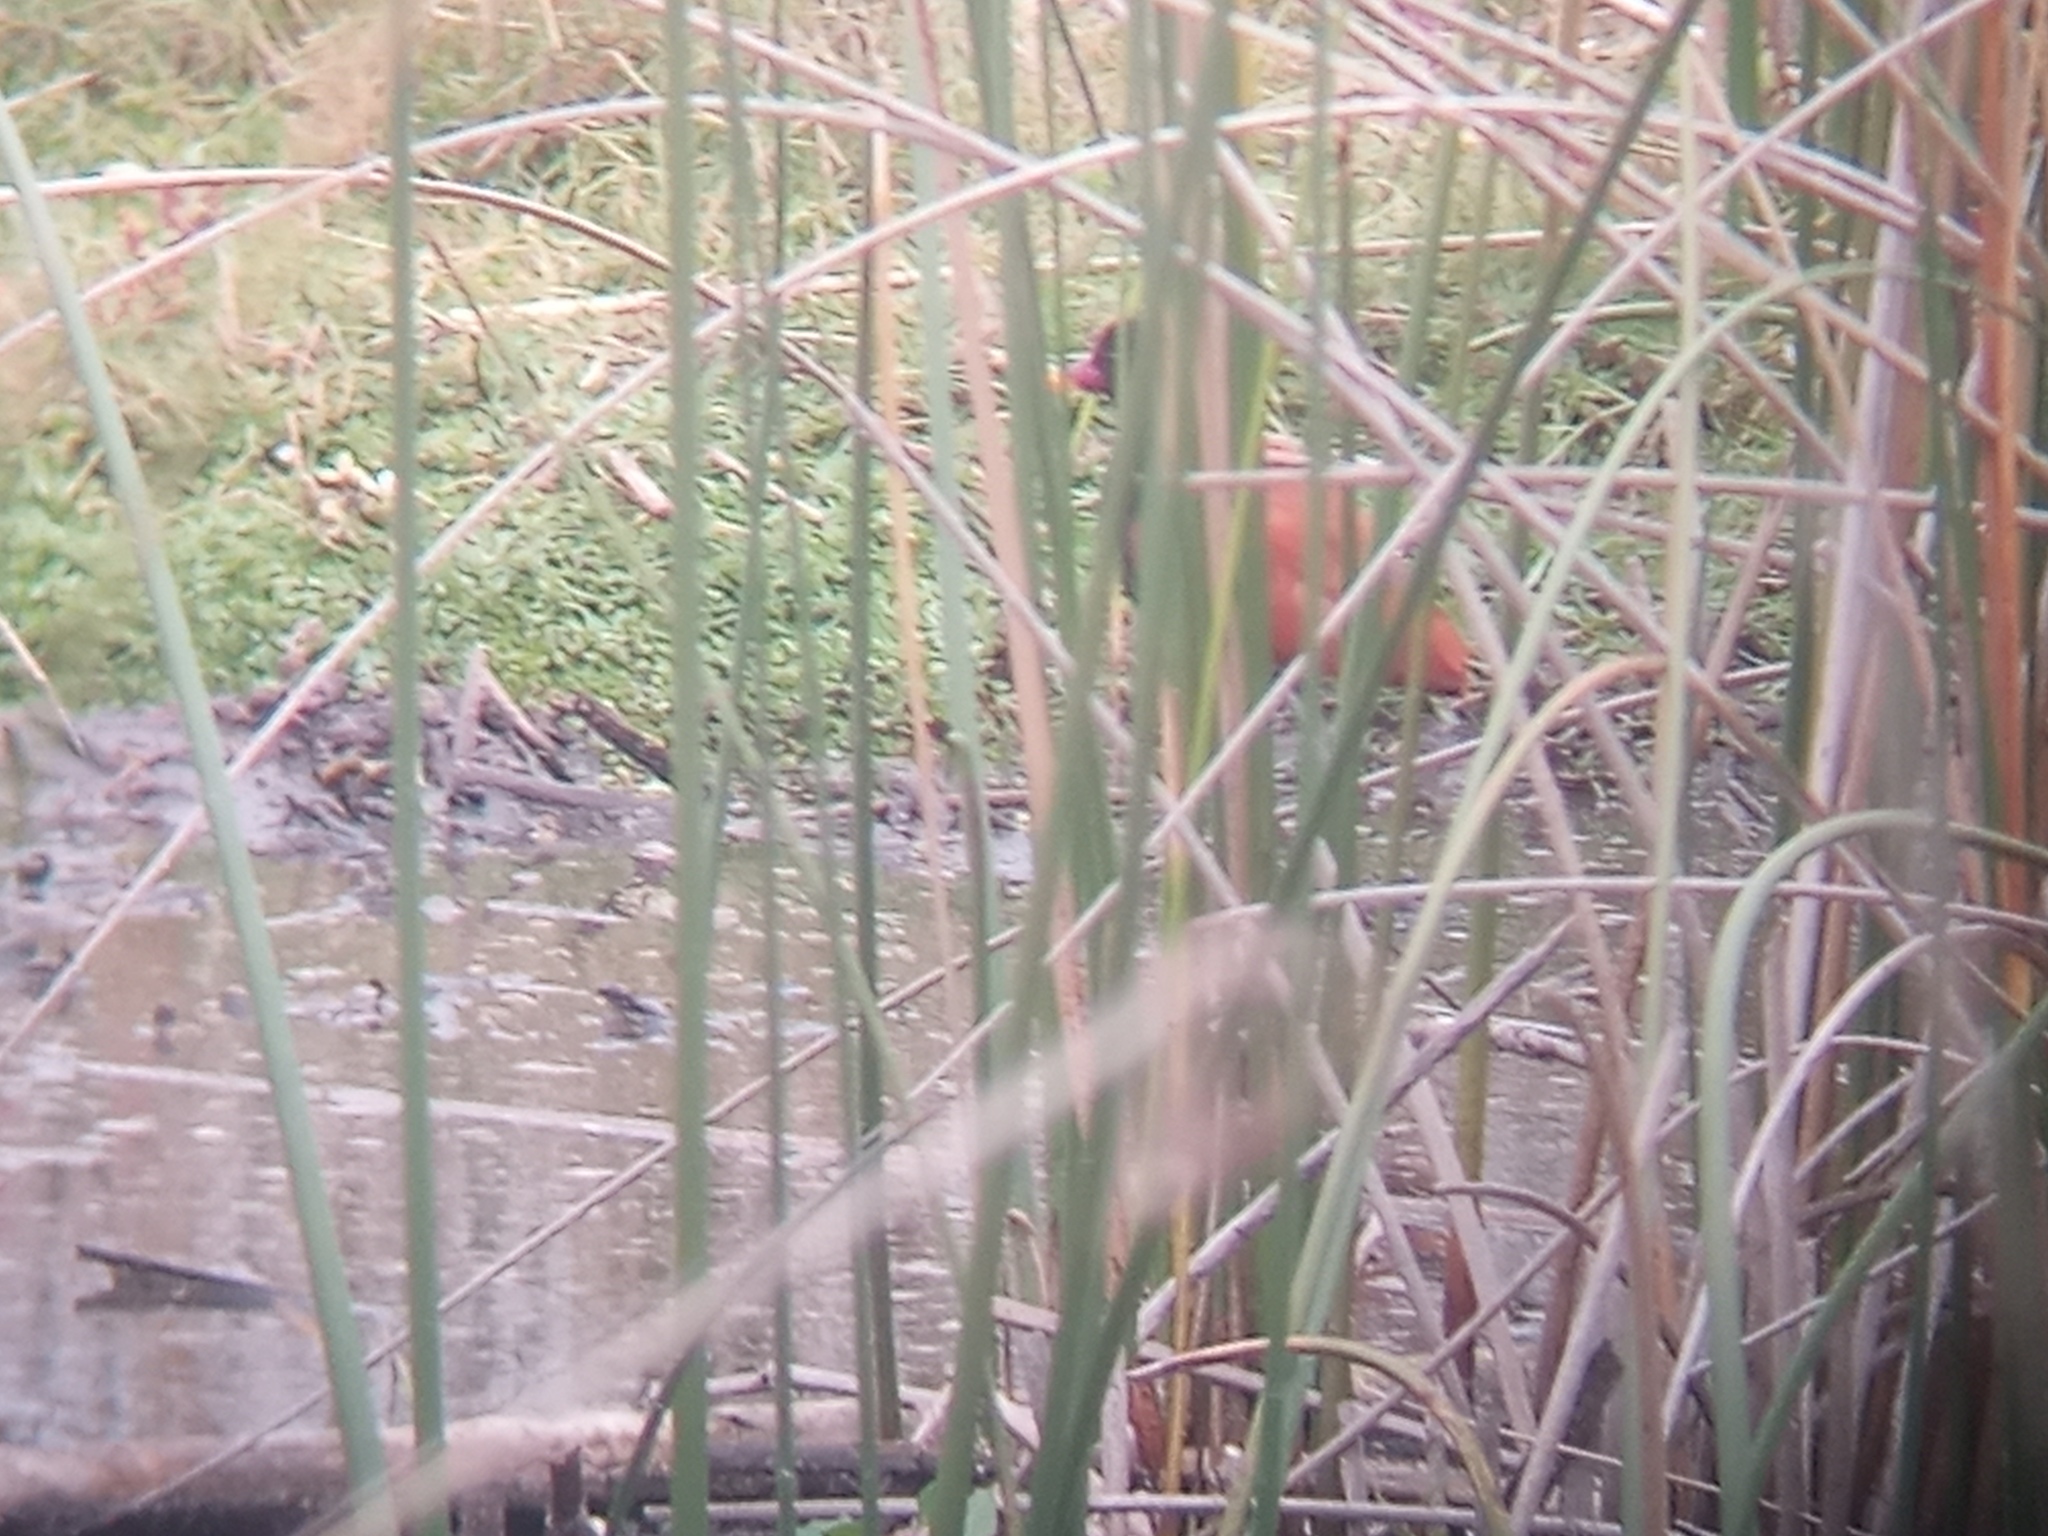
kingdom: Animalia
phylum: Chordata
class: Aves
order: Charadriiformes
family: Jacanidae
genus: Jacana
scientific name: Jacana jacana
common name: Wattled jacana
